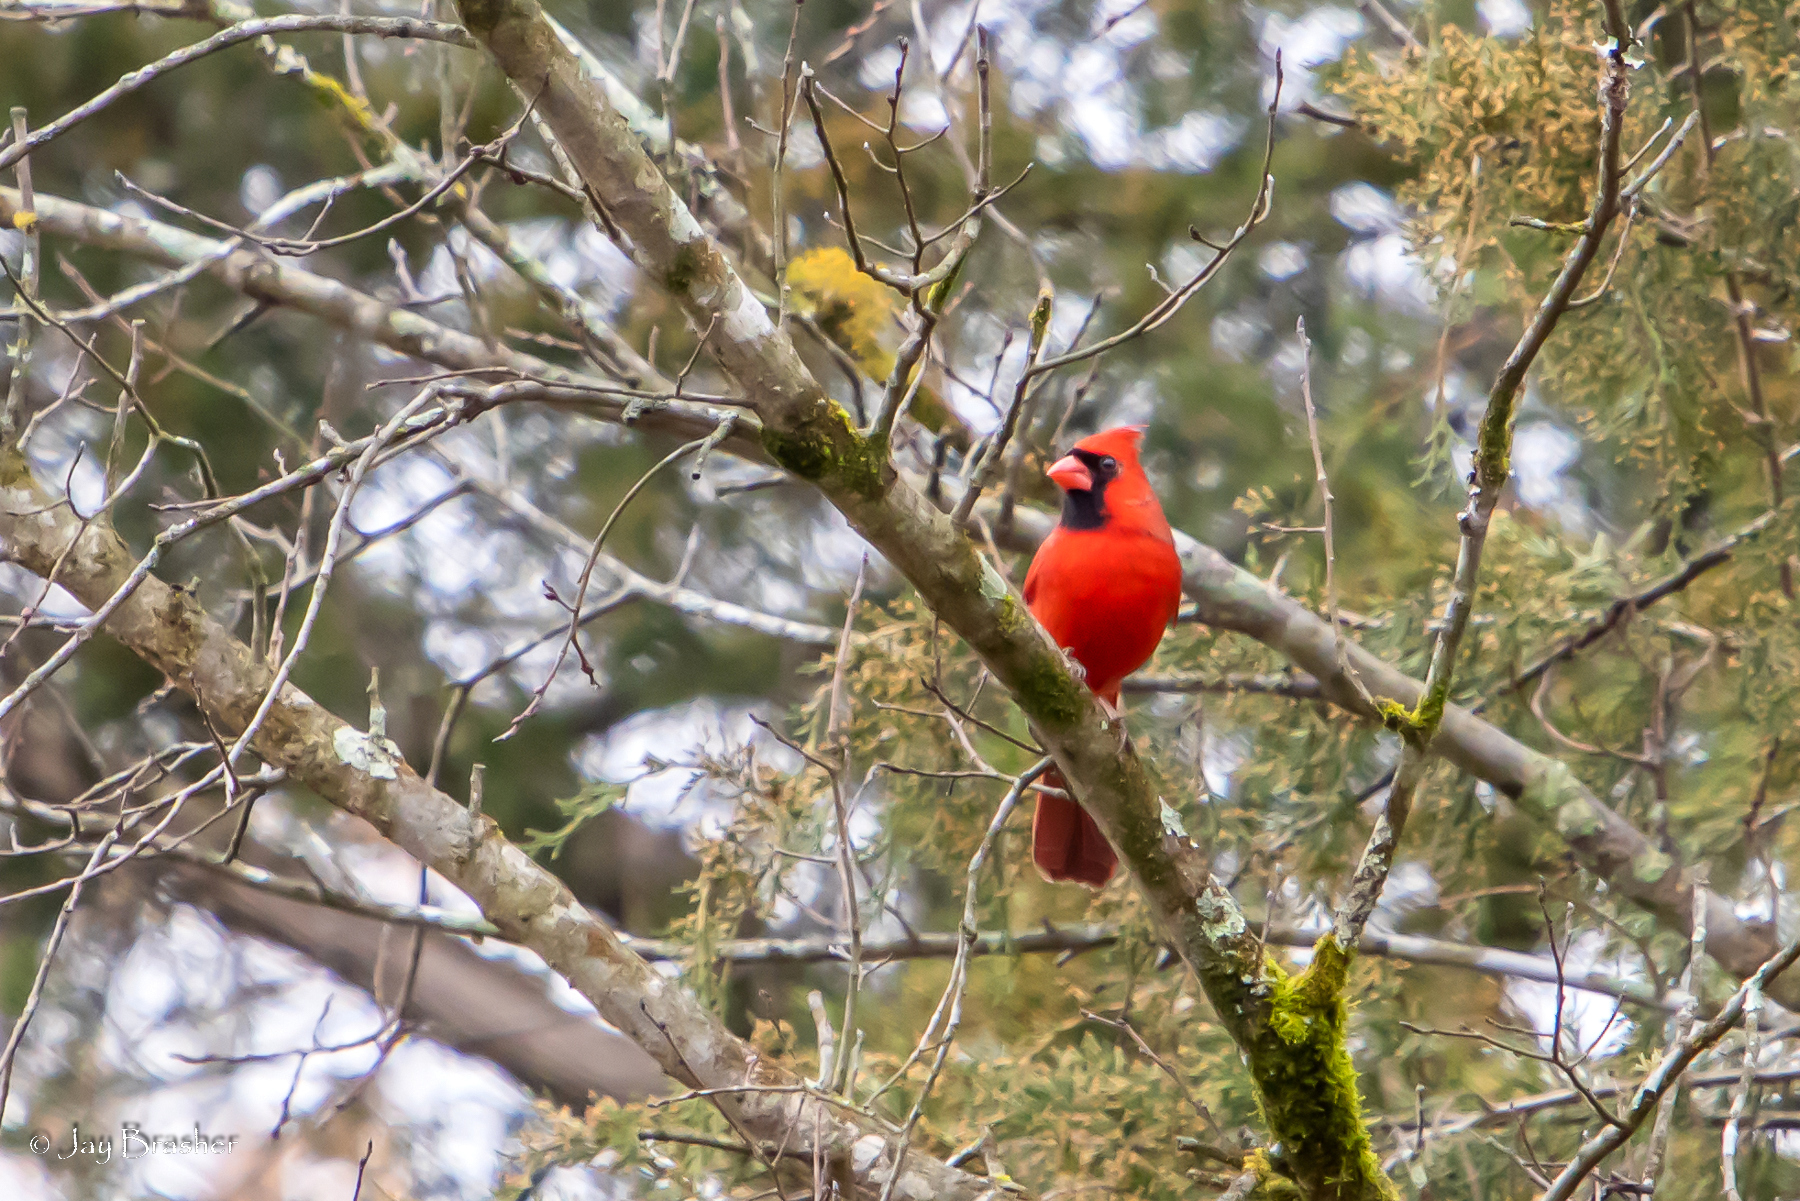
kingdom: Animalia
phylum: Chordata
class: Aves
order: Passeriformes
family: Cardinalidae
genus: Cardinalis
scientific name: Cardinalis cardinalis
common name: Northern cardinal
